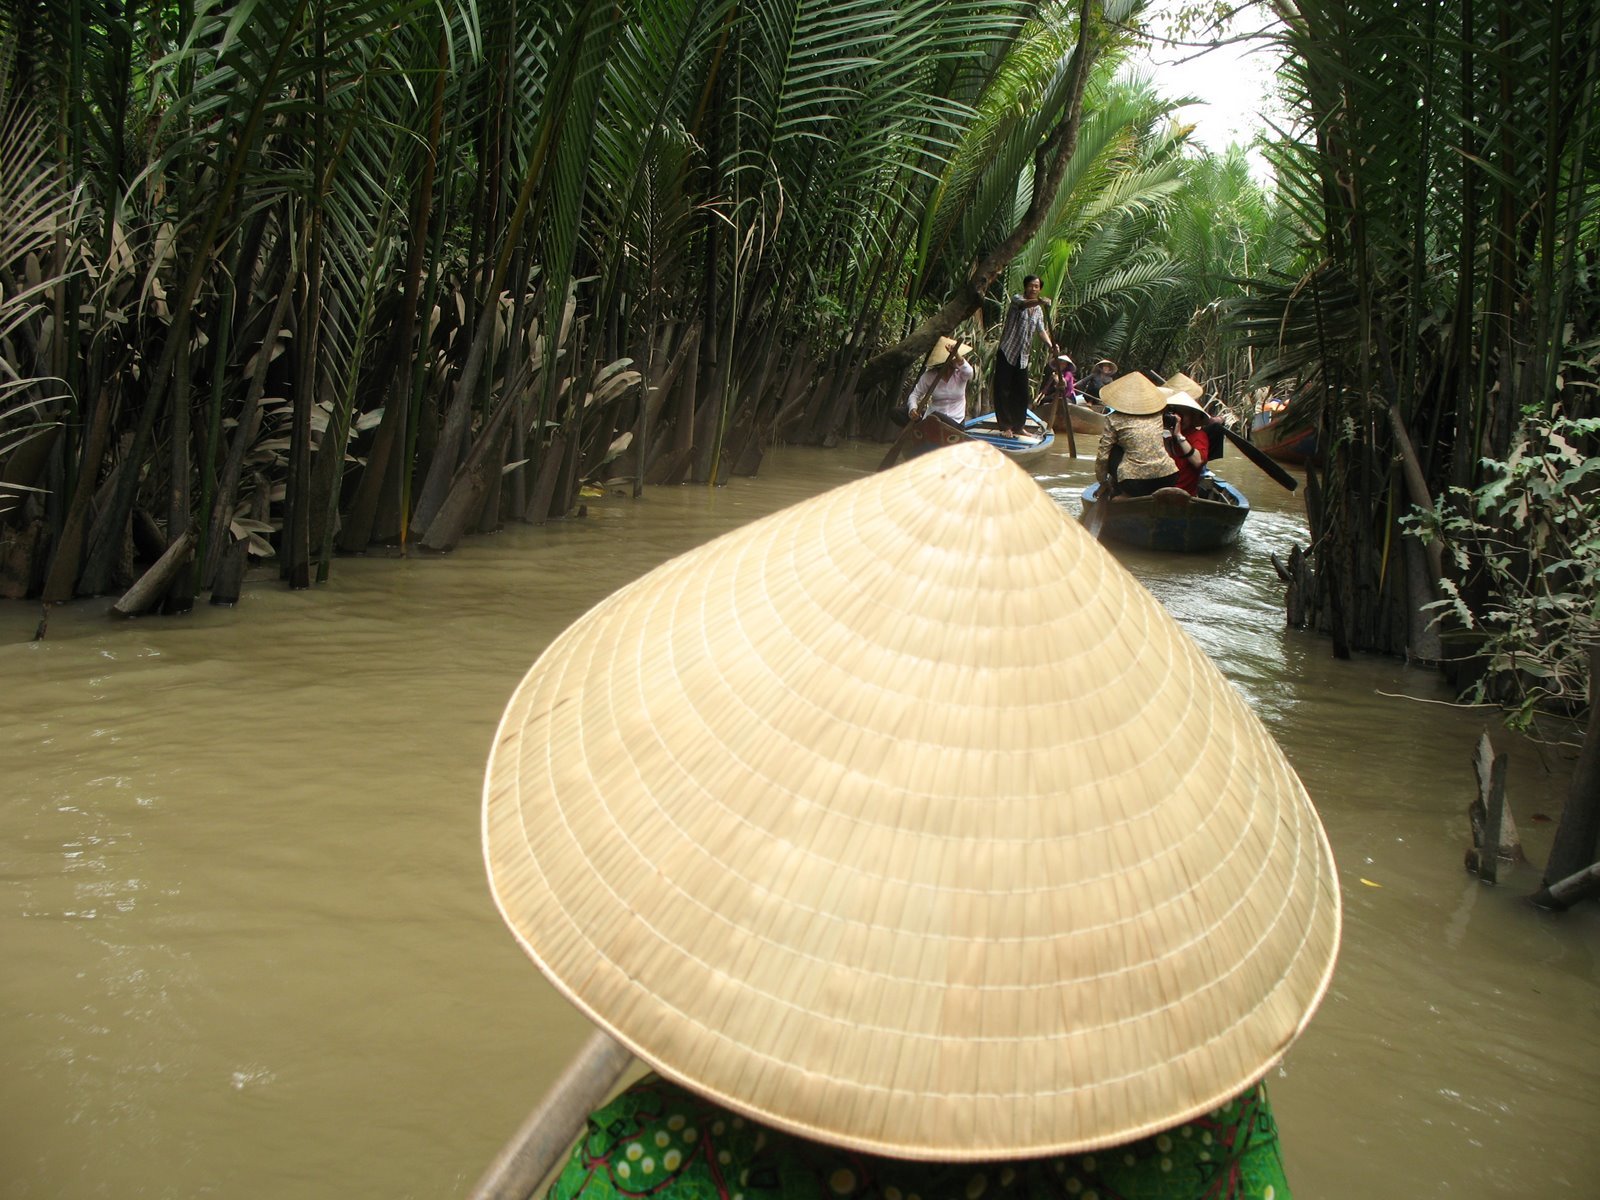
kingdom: Plantae
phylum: Tracheophyta
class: Liliopsida
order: Arecales
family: Arecaceae
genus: Nypa
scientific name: Nypa fruticans
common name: Mangrove palm
